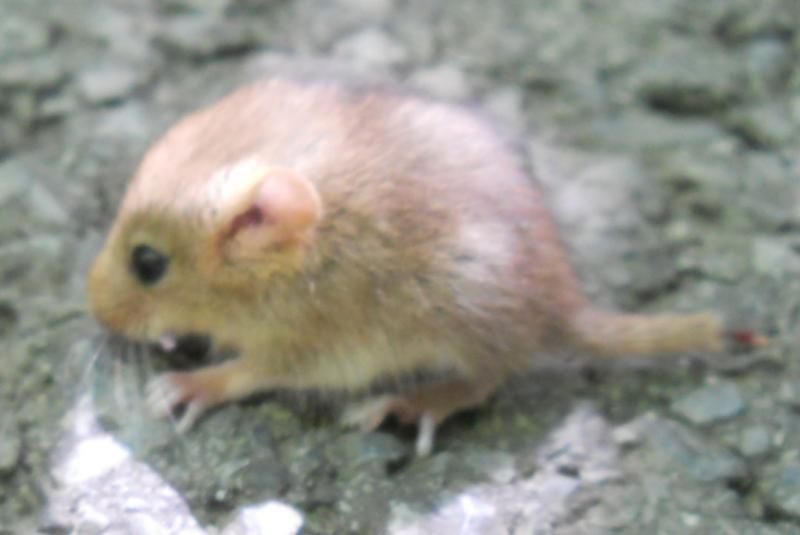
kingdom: Animalia
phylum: Chordata
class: Mammalia
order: Rodentia
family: Gliridae
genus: Muscardinus
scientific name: Muscardinus avellanarius
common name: Hazel dormouse
